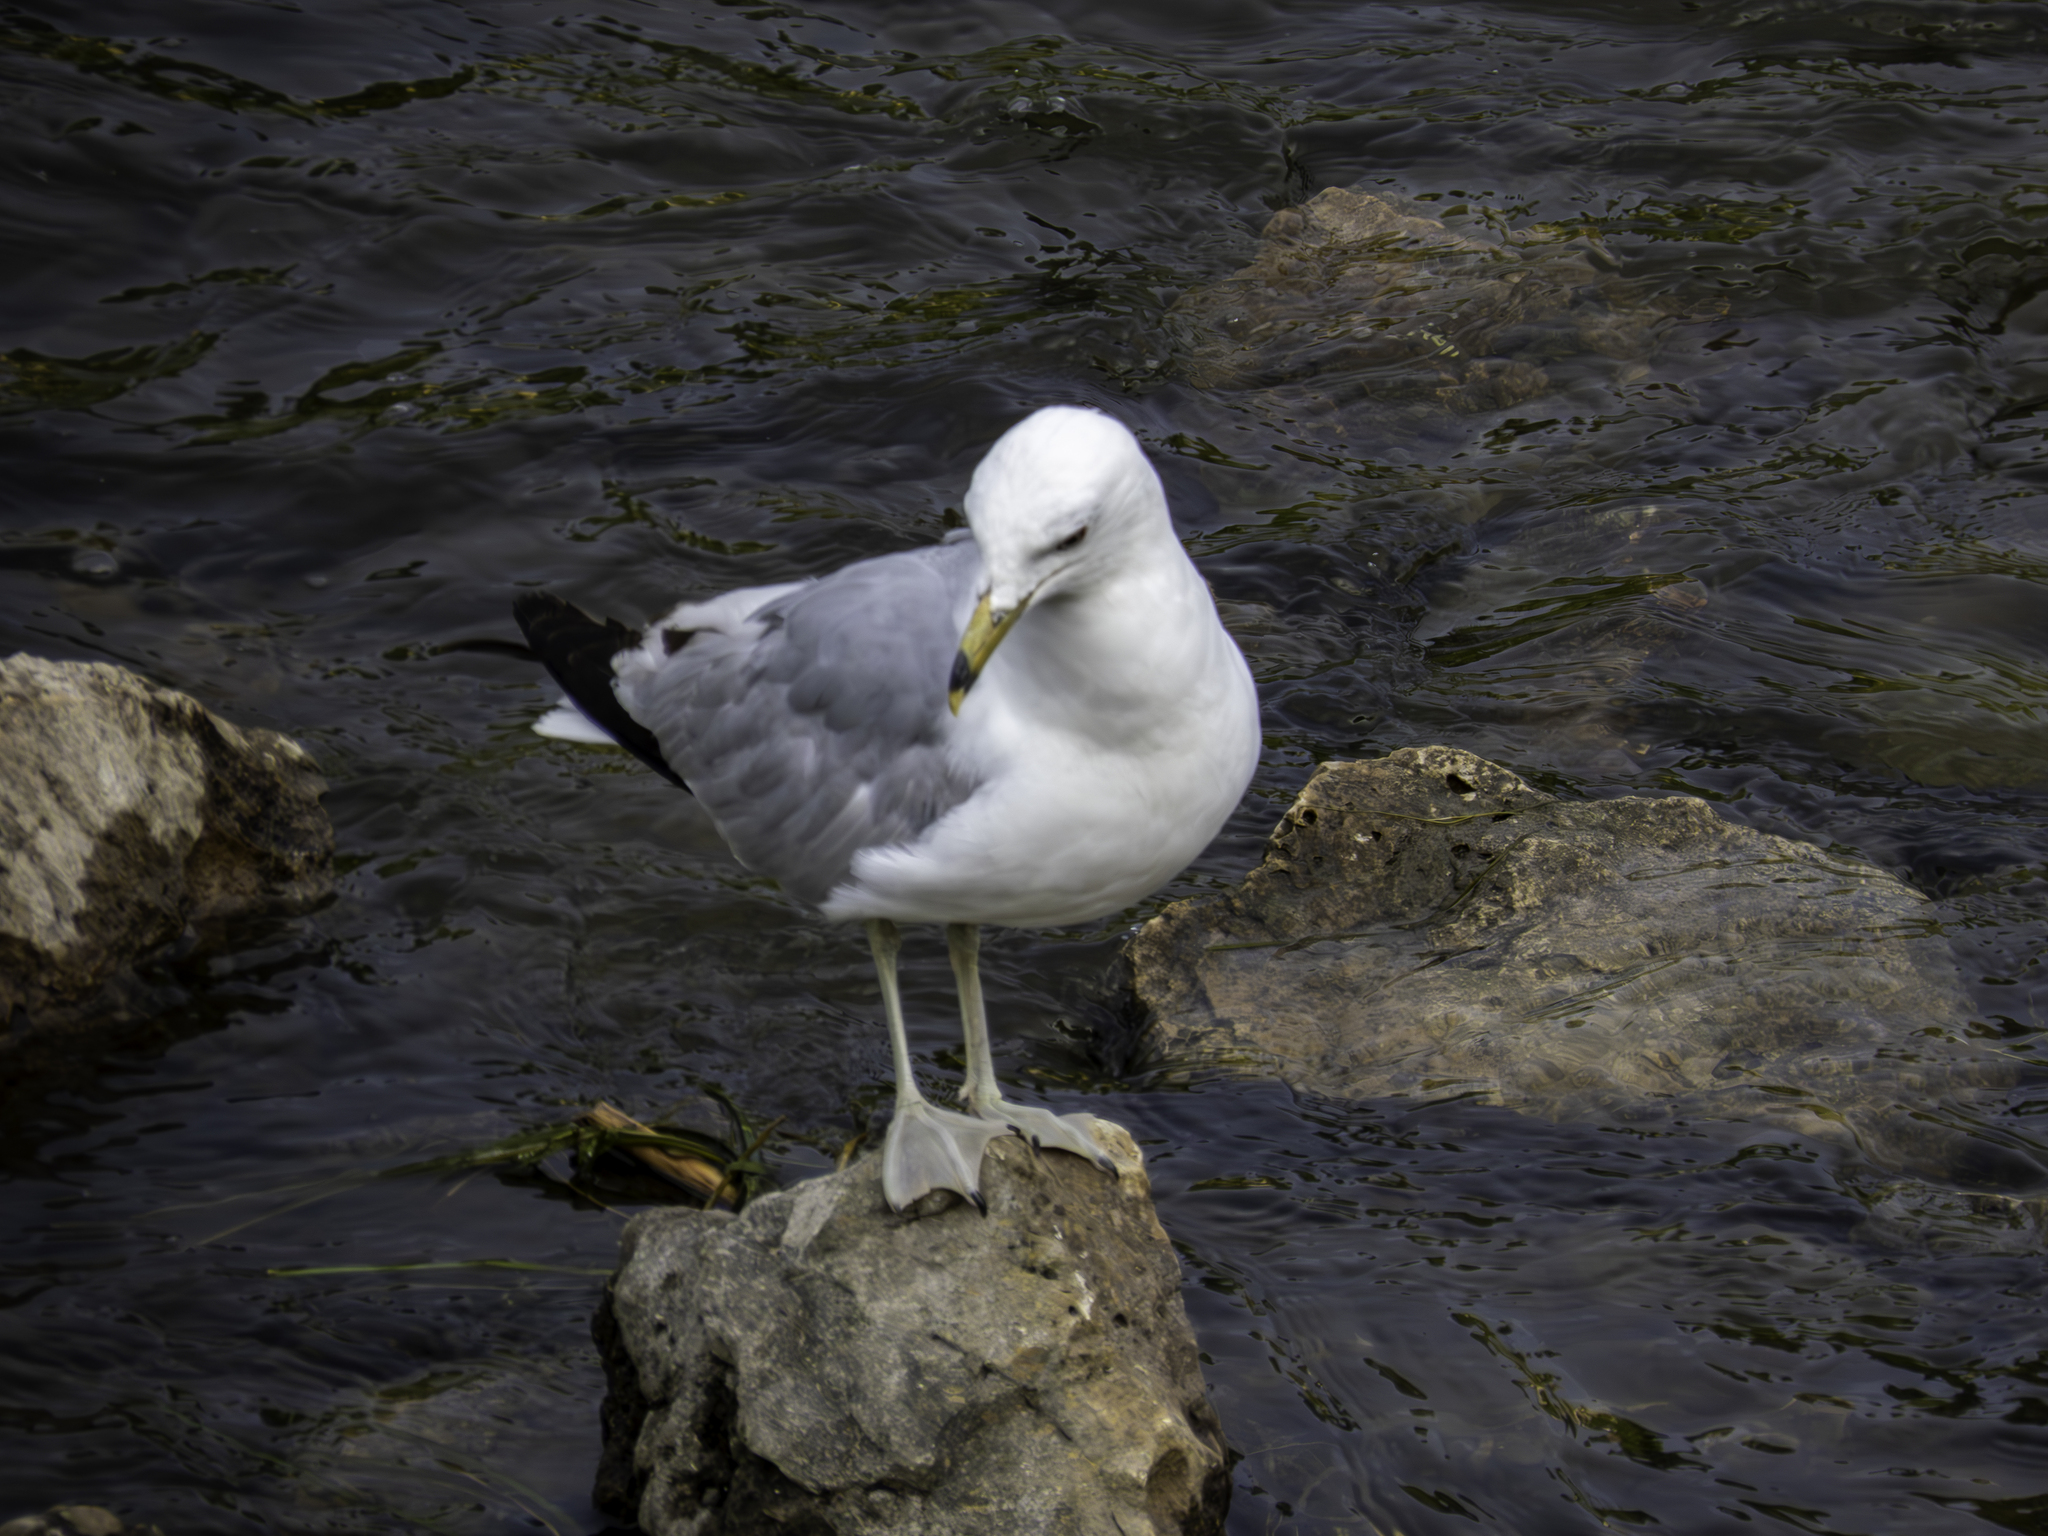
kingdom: Animalia
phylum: Chordata
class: Aves
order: Charadriiformes
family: Laridae
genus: Larus
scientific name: Larus delawarensis
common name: Ring-billed gull
